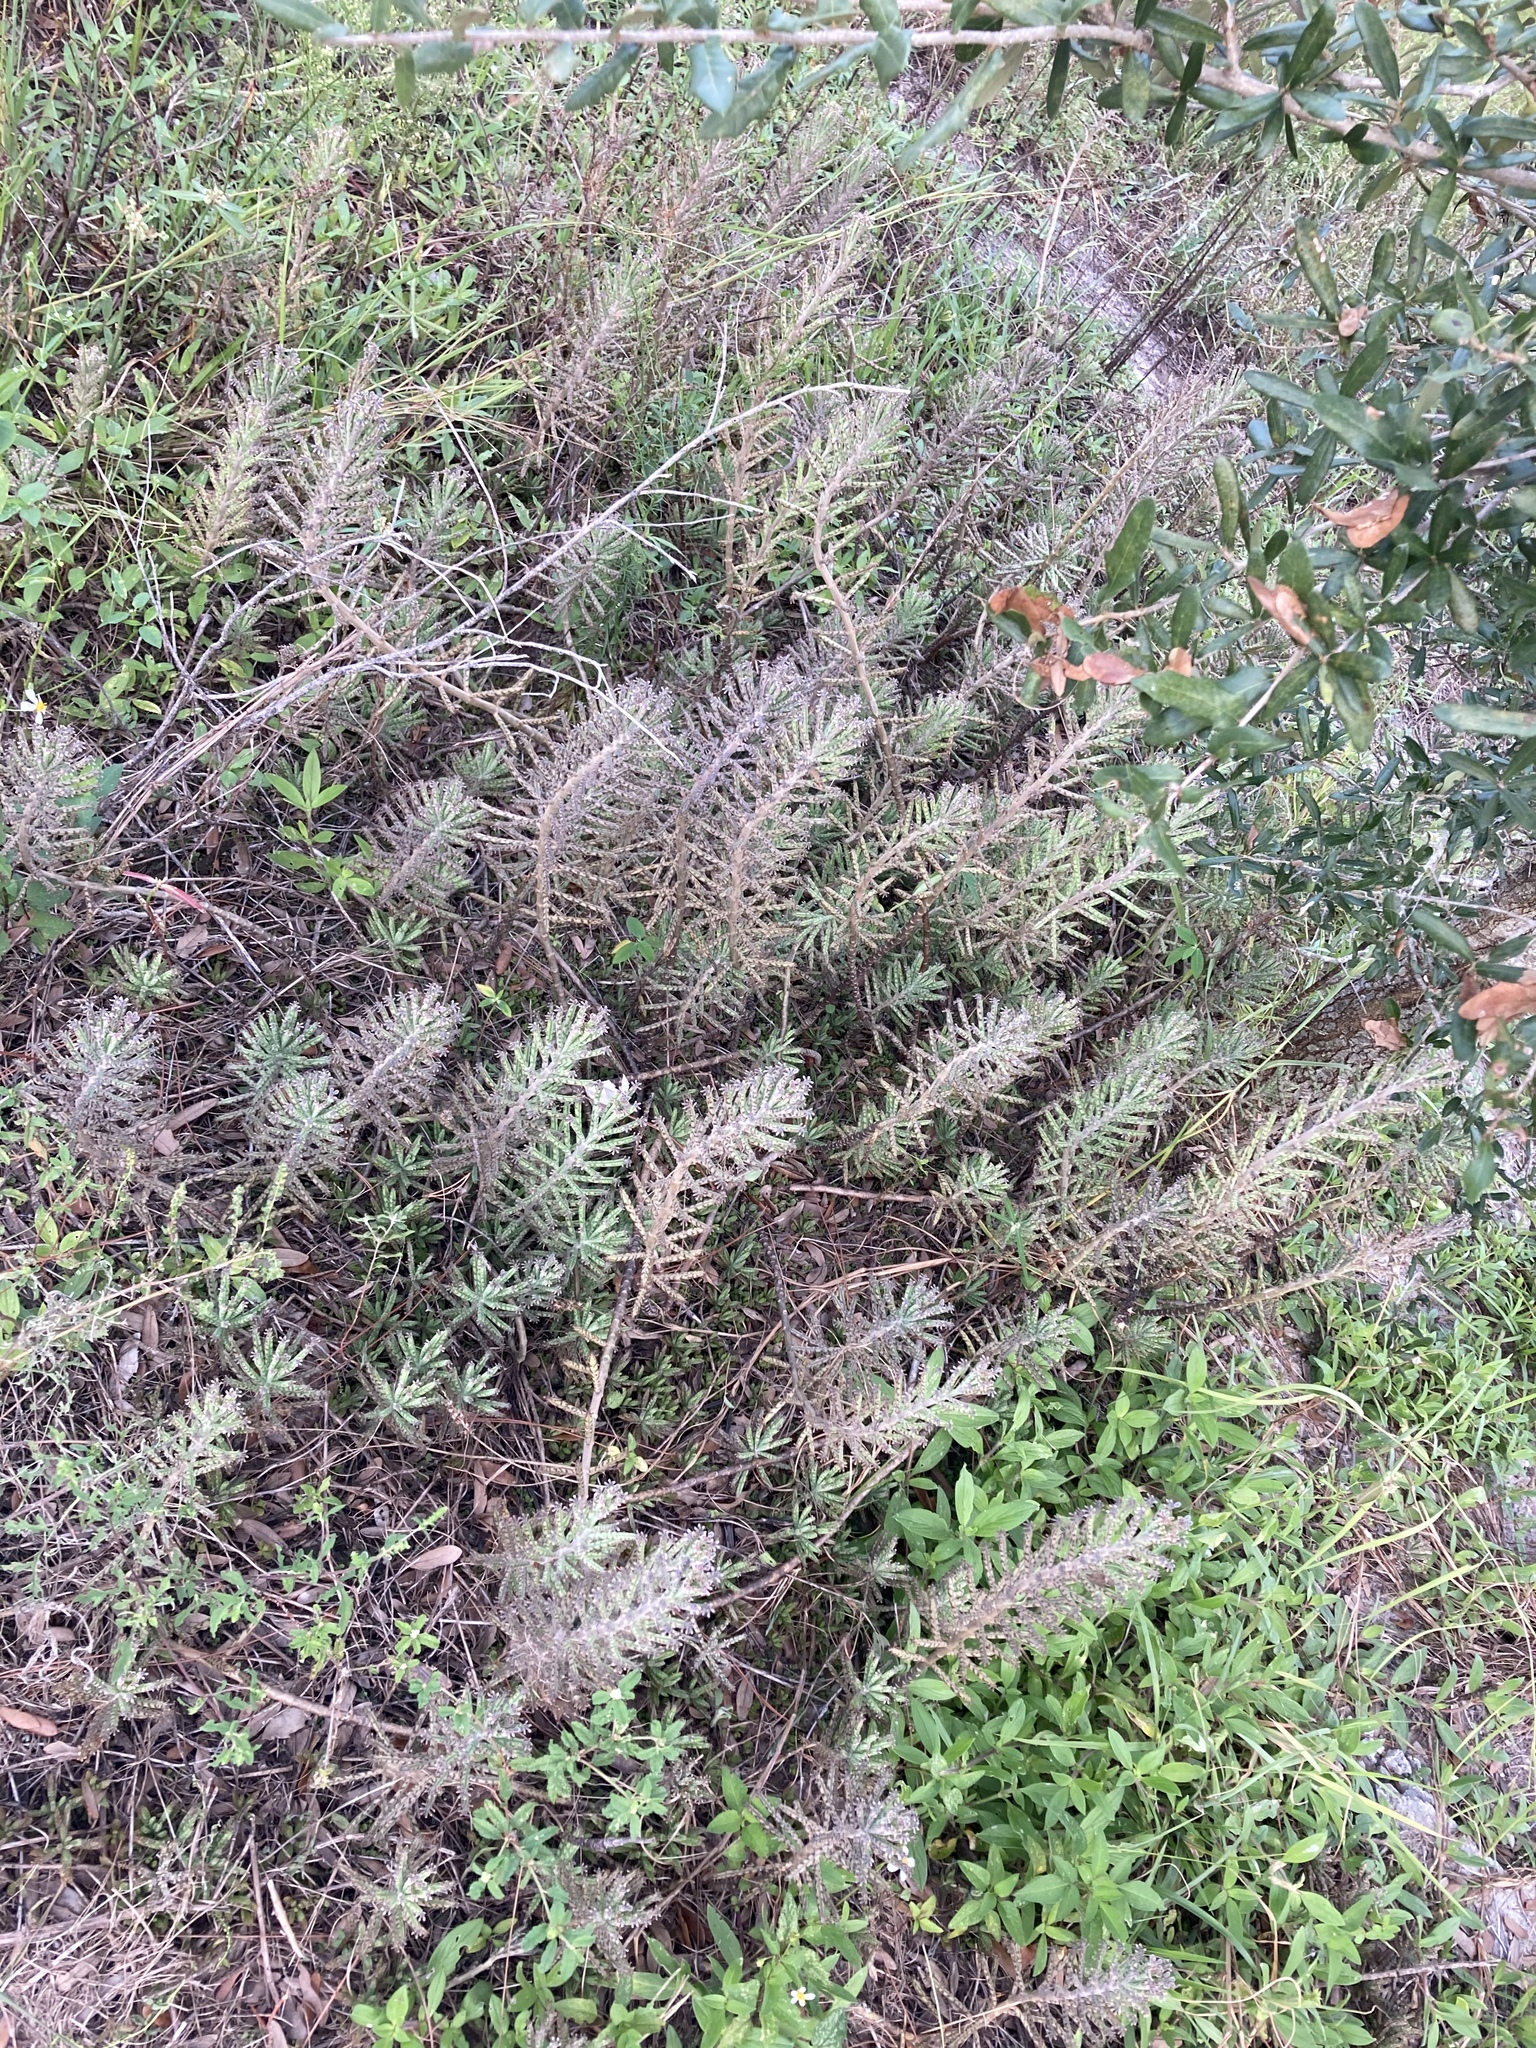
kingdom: Plantae
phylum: Tracheophyta
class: Magnoliopsida
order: Saxifragales
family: Crassulaceae
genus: Kalanchoe
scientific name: Kalanchoe delagoensis
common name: Chandelier plant
